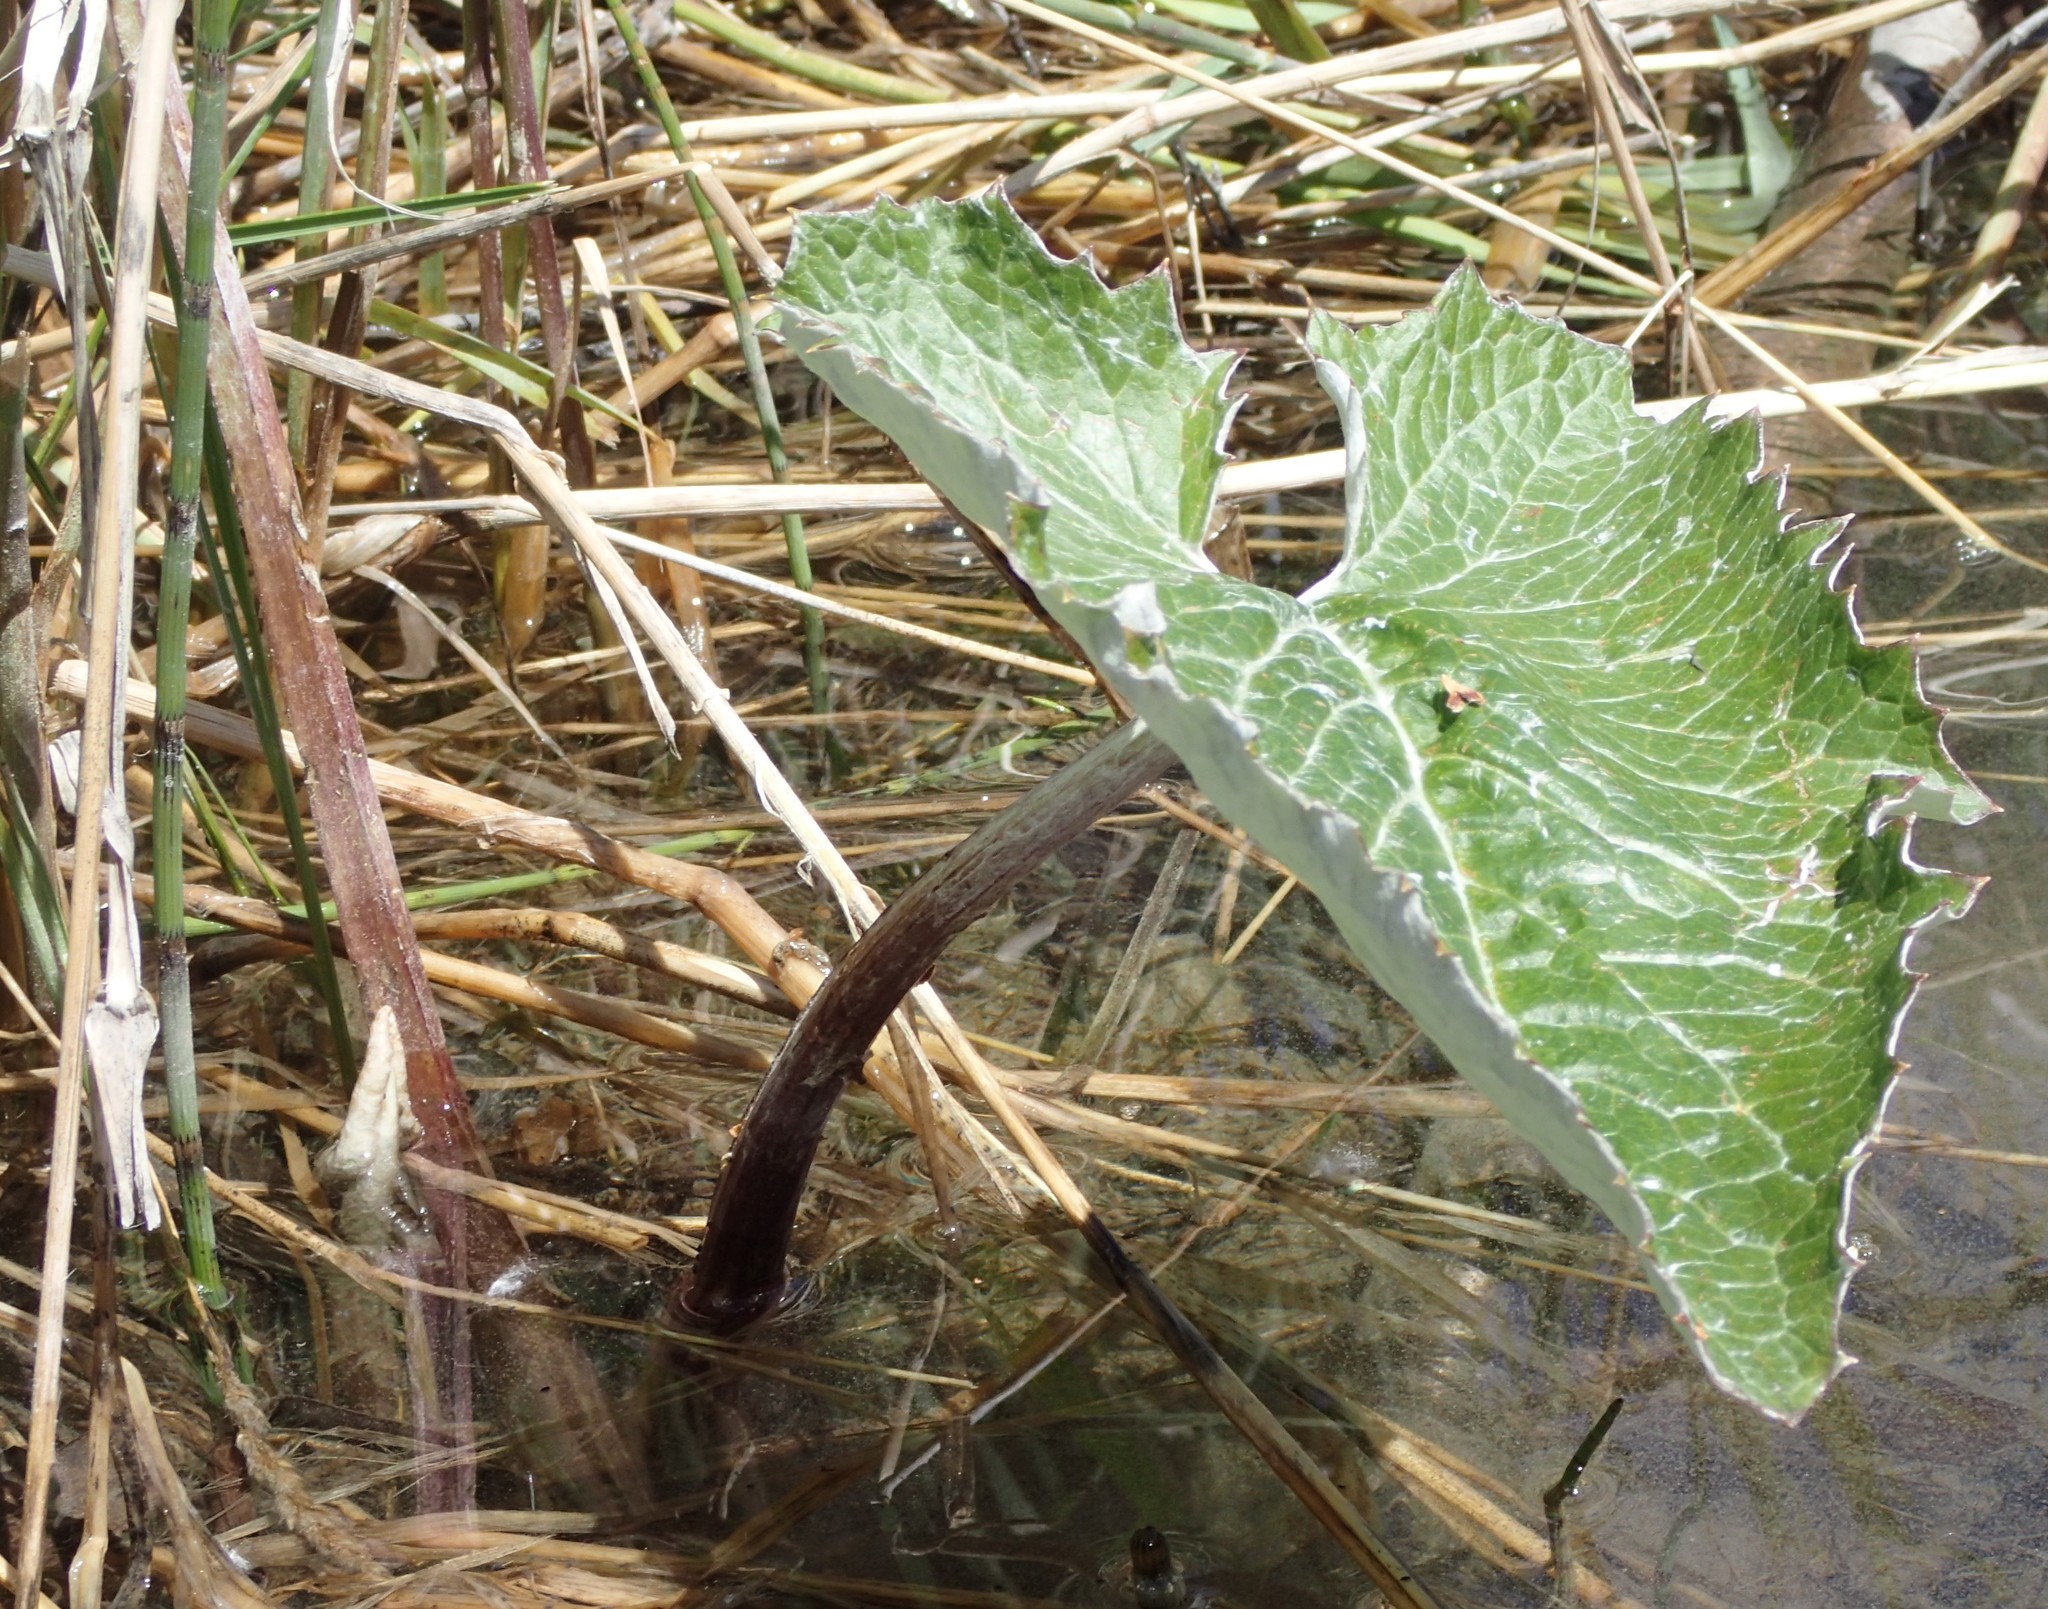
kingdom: Plantae
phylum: Tracheophyta
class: Magnoliopsida
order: Asterales
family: Asteraceae
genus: Petasites
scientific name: Petasites frigidus
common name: Arctic butterbur
